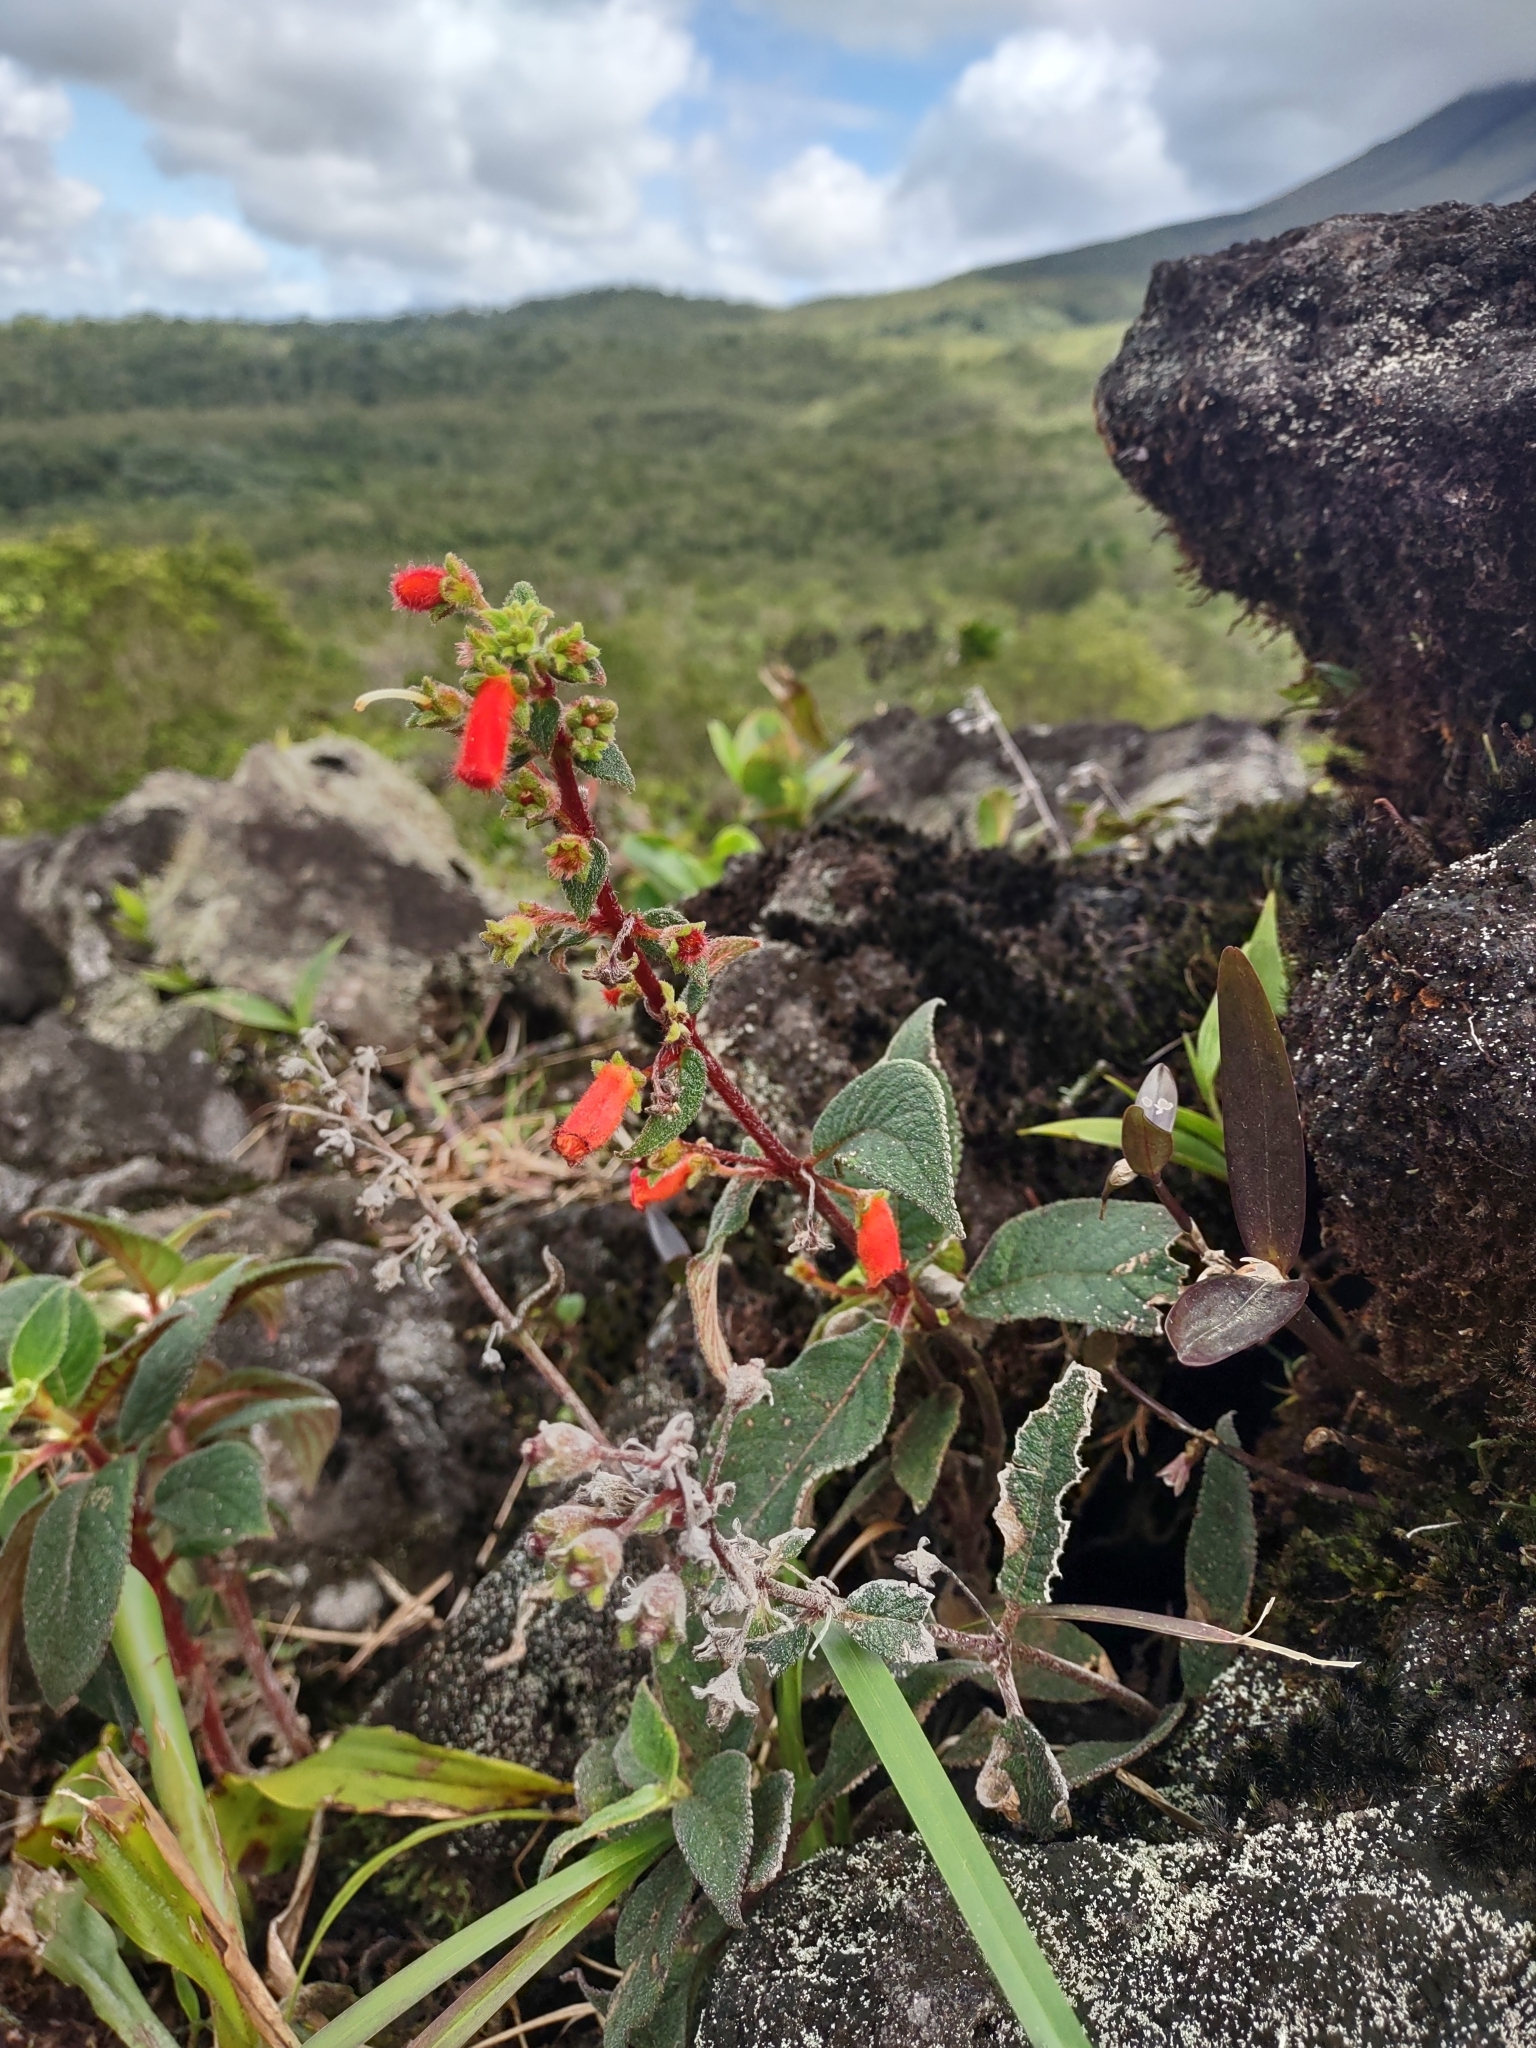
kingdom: Plantae
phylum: Tracheophyta
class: Magnoliopsida
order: Lamiales
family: Gesneriaceae
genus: Kohleria
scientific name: Kohleria spicata
